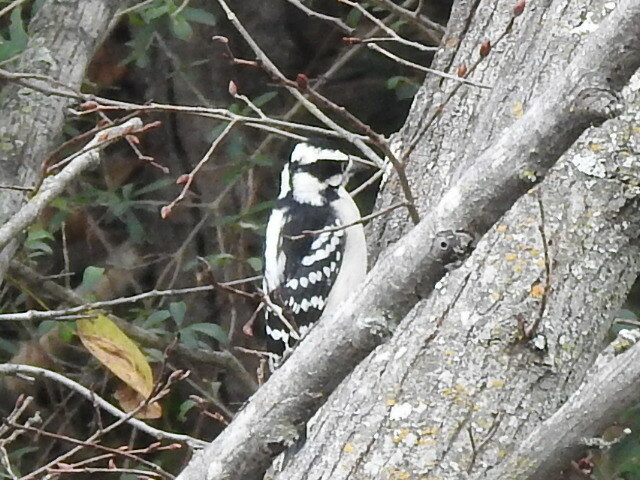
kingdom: Animalia
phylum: Chordata
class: Aves
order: Piciformes
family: Picidae
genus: Dryobates
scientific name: Dryobates pubescens
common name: Downy woodpecker
